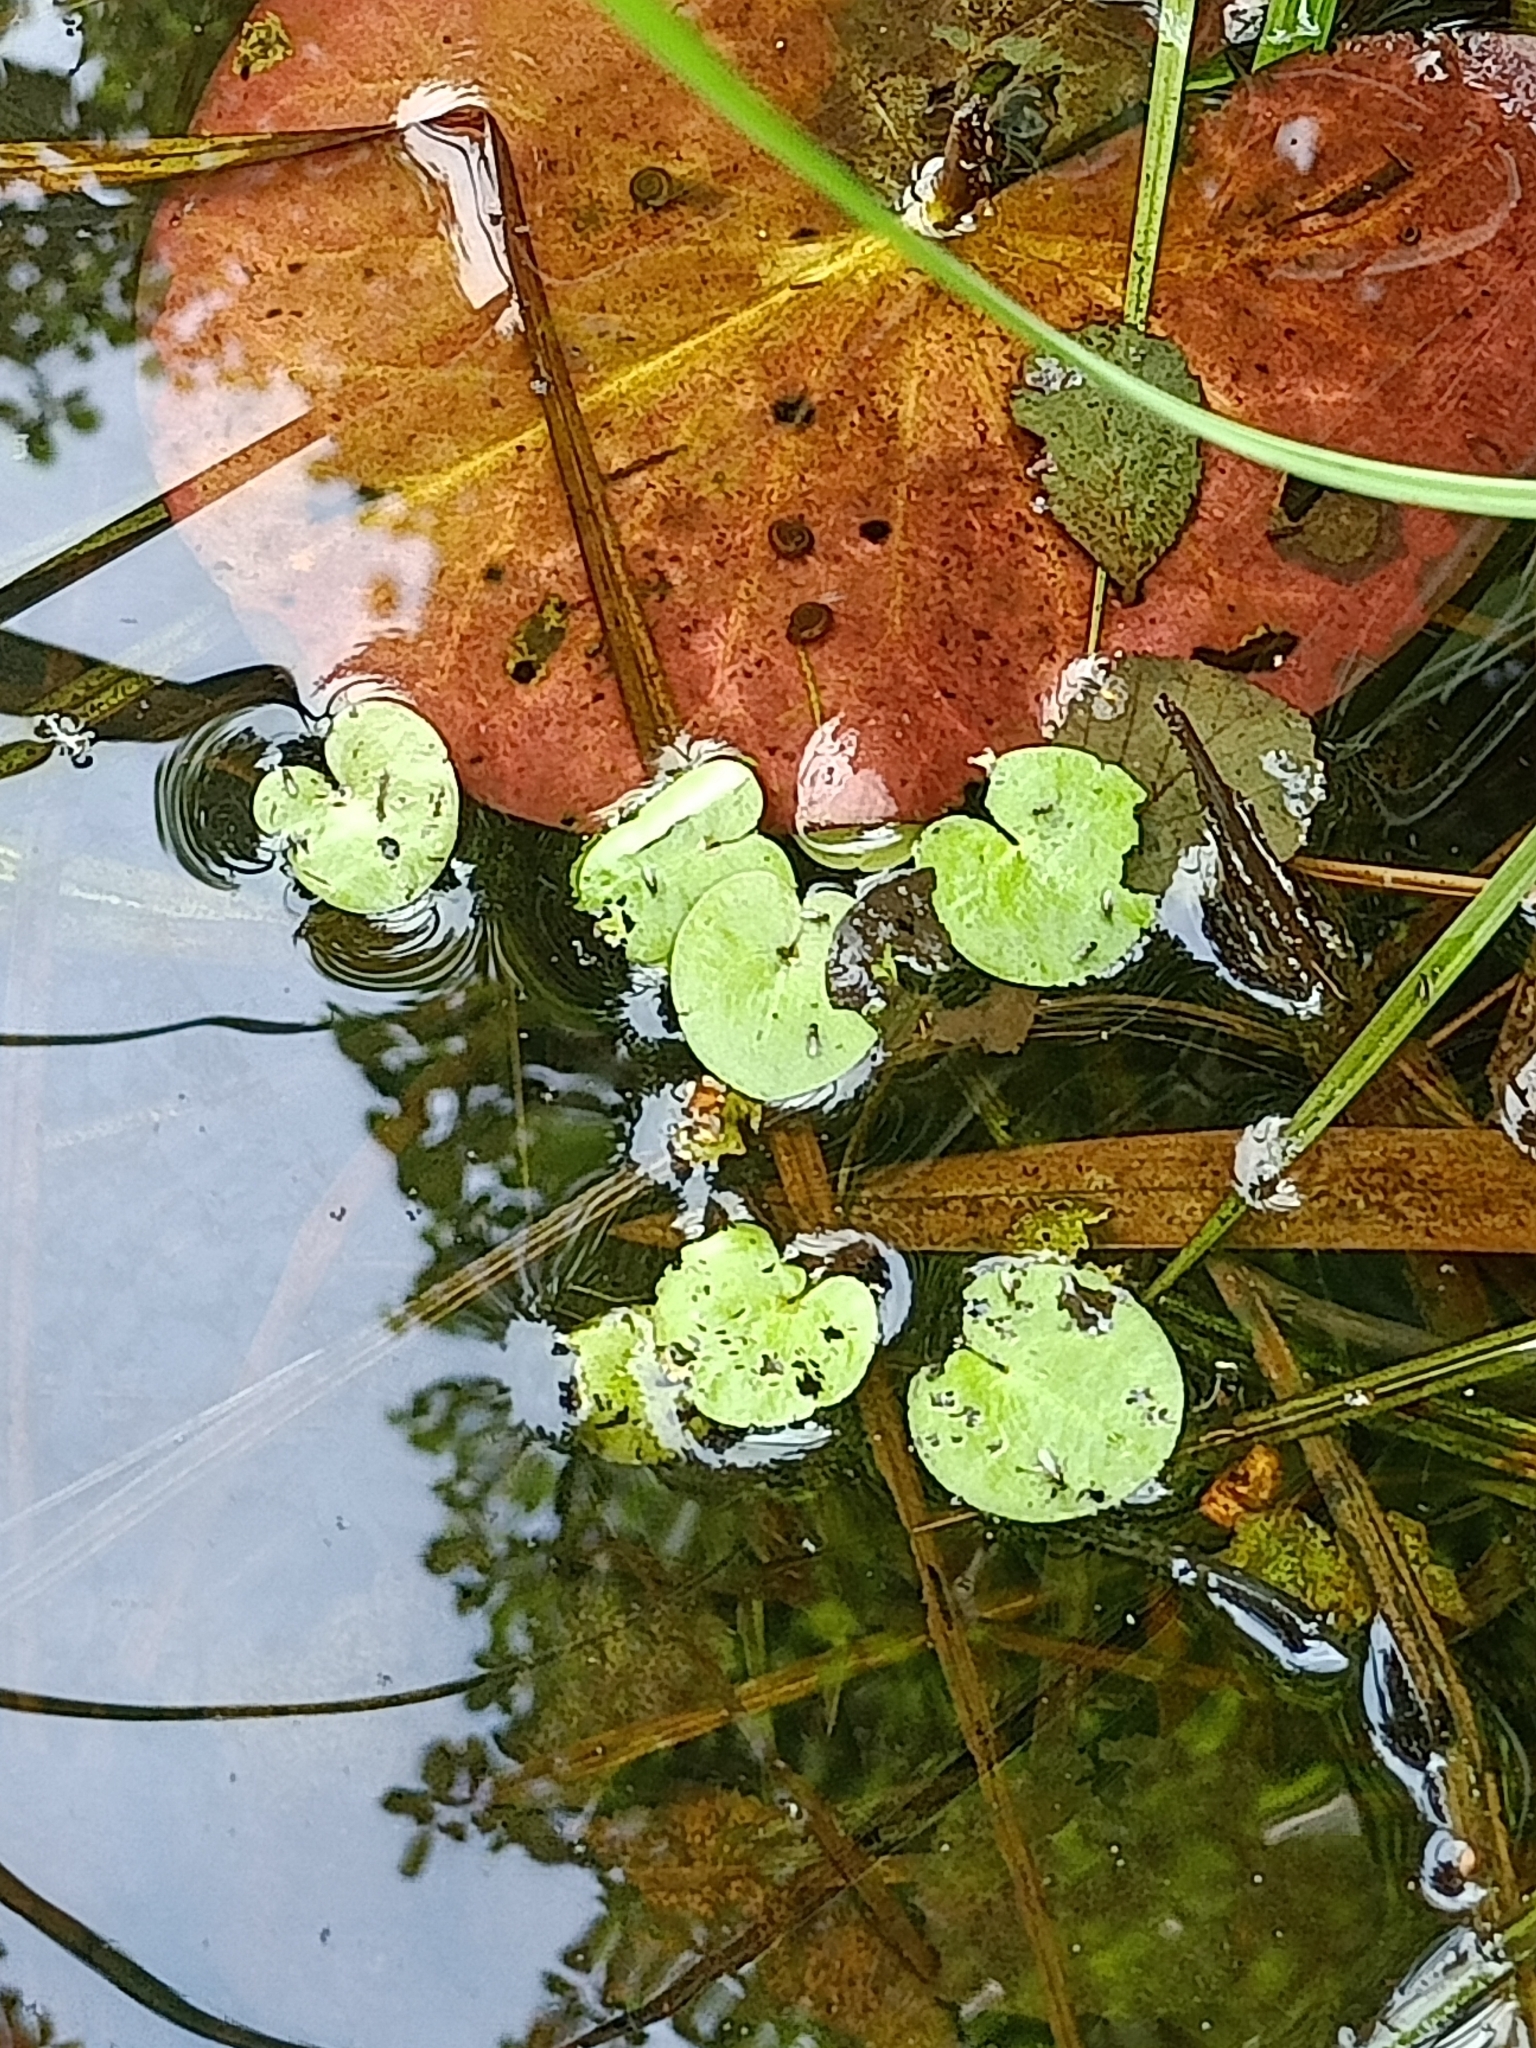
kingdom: Plantae
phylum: Tracheophyta
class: Liliopsida
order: Alismatales
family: Hydrocharitaceae
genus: Hydrocharis
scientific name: Hydrocharis morsus-ranae
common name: Frogbit
